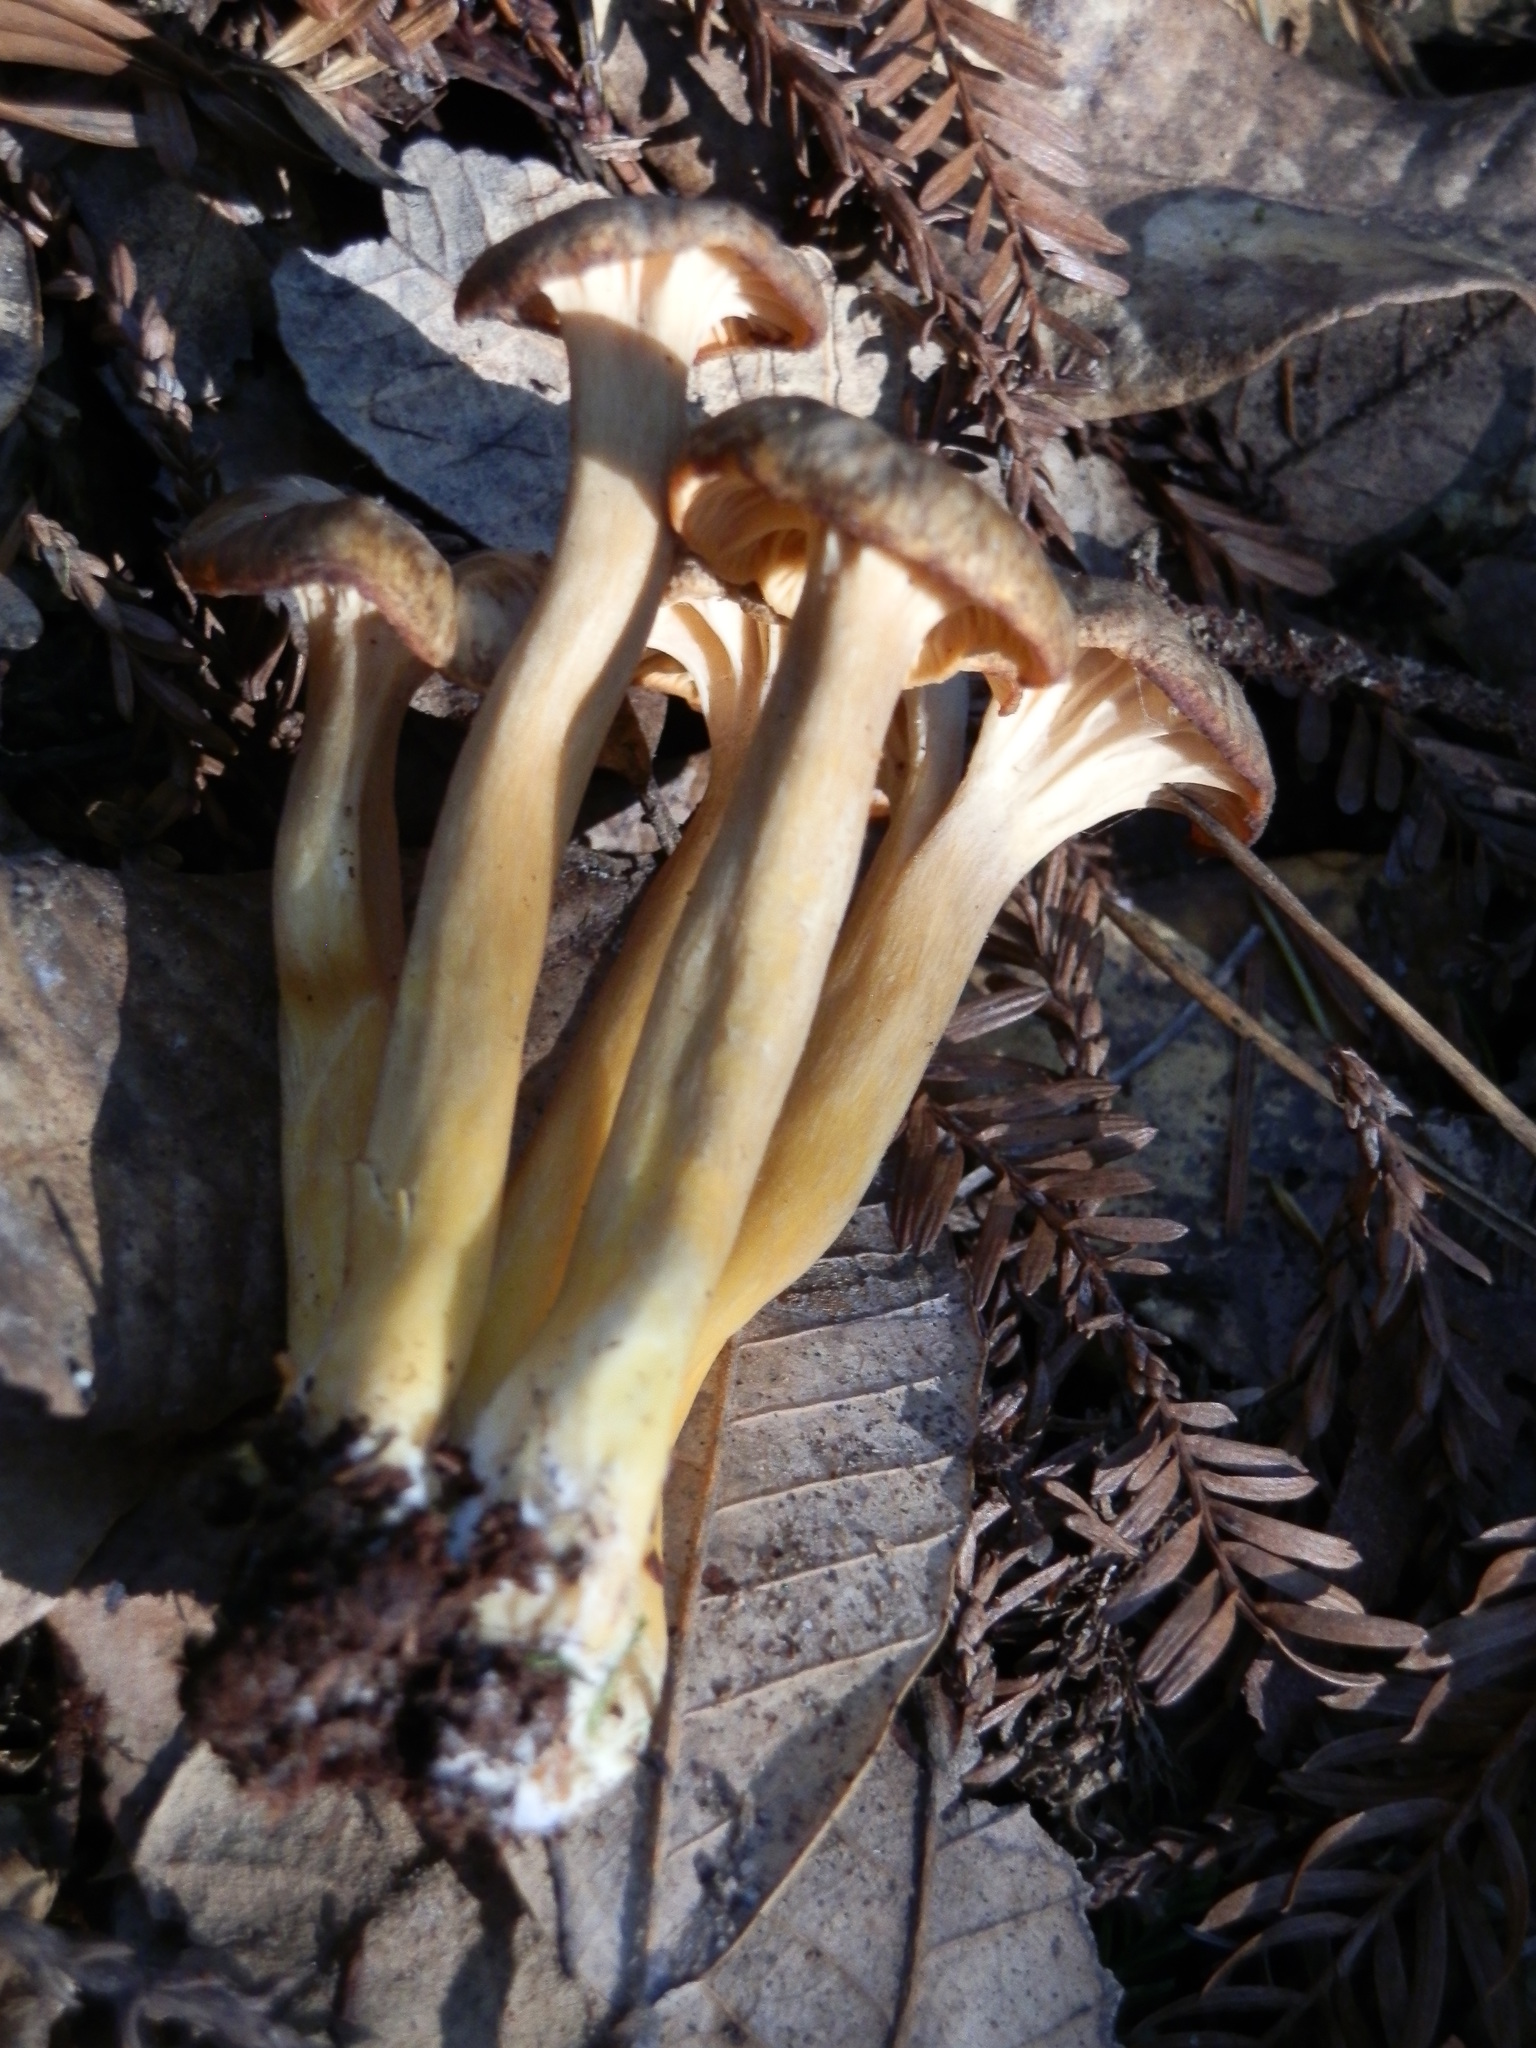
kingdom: Fungi
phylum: Basidiomycota
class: Agaricomycetes
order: Cantharellales
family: Hydnaceae
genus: Craterellus
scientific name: Craterellus tubaeformis
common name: Yellowfoot
